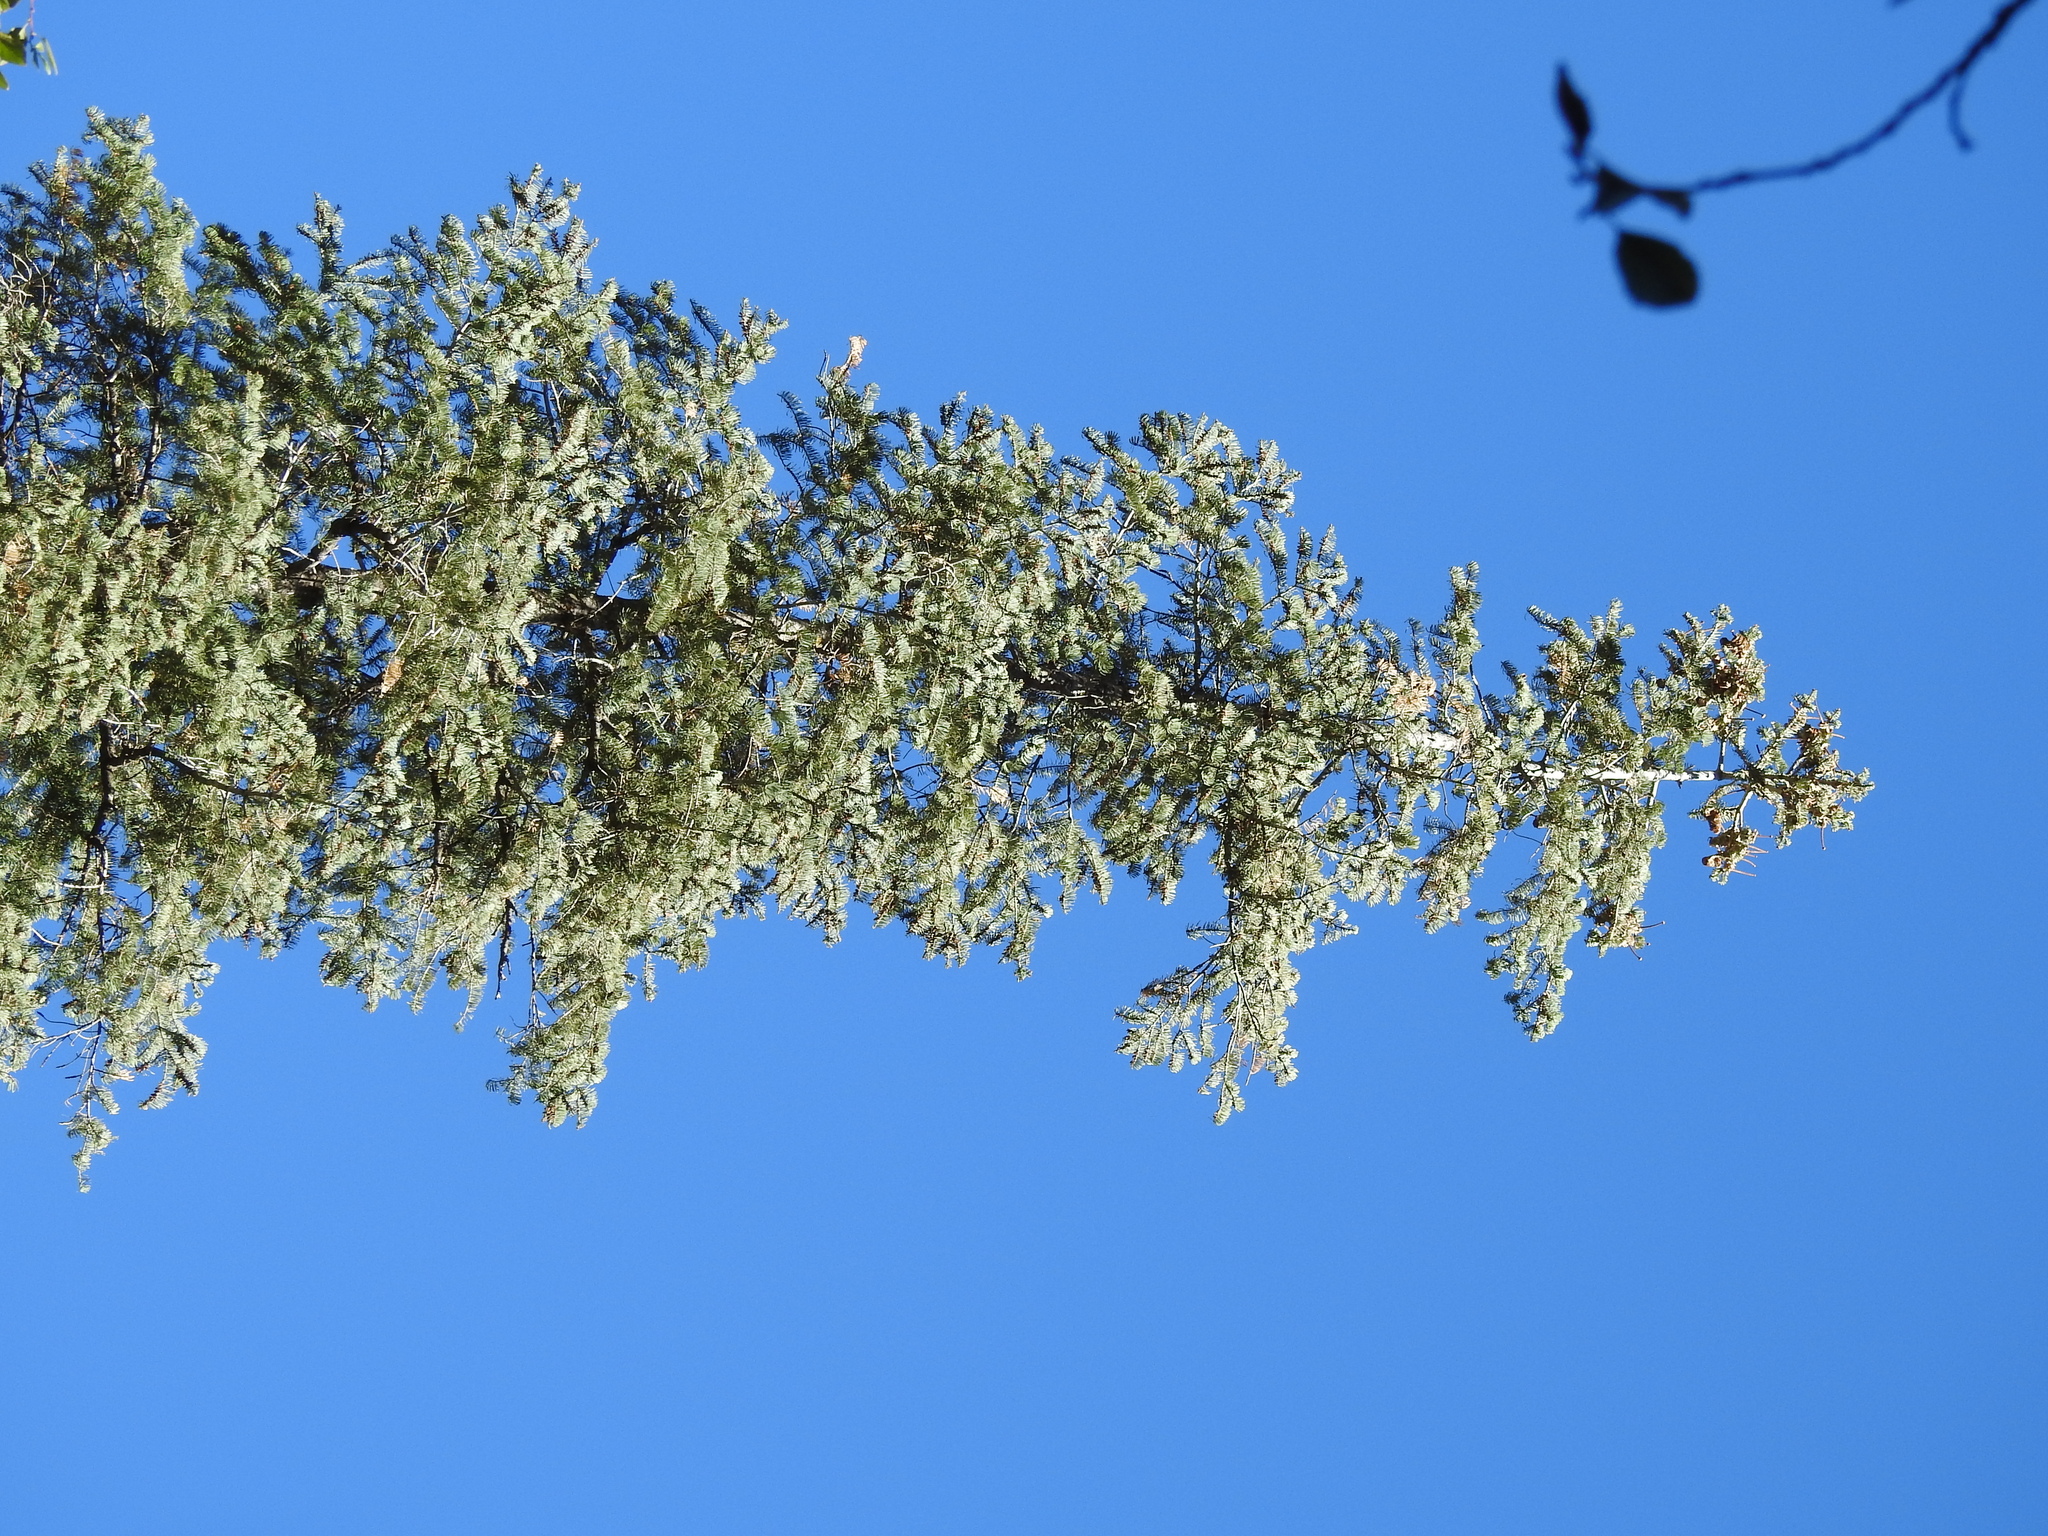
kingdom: Plantae
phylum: Tracheophyta
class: Pinopsida
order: Pinales
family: Pinaceae
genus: Abies
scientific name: Abies concolor
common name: Colorado fir
